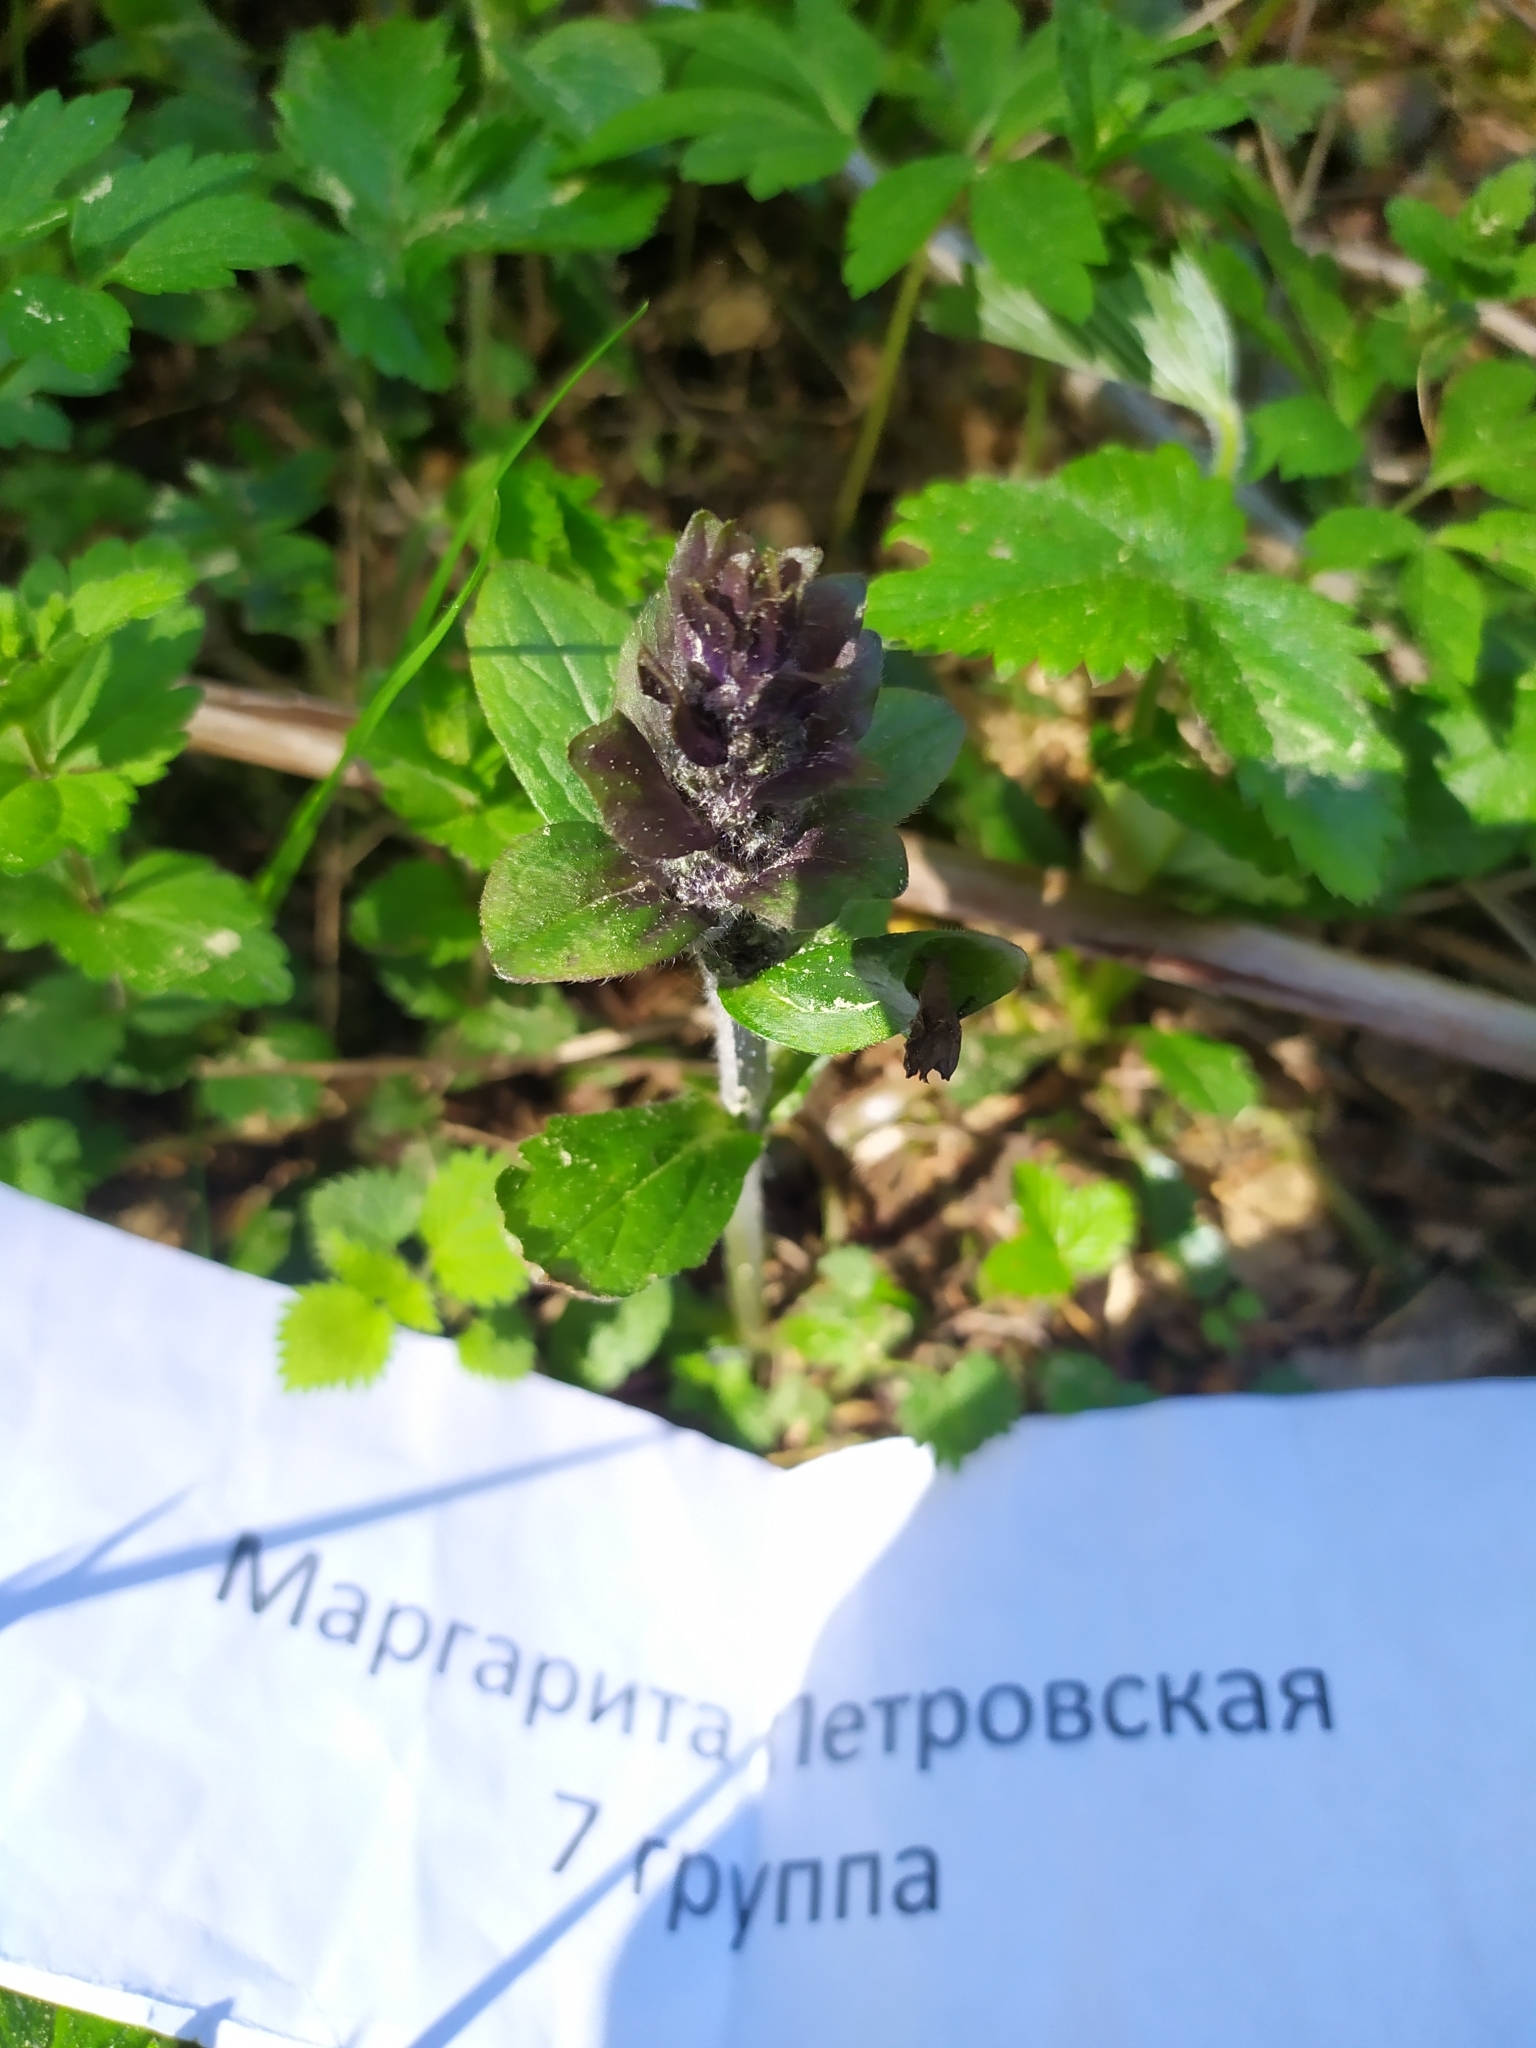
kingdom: Plantae
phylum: Tracheophyta
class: Magnoliopsida
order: Lamiales
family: Lamiaceae
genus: Ajuga
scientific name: Ajuga reptans
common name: Bugle
